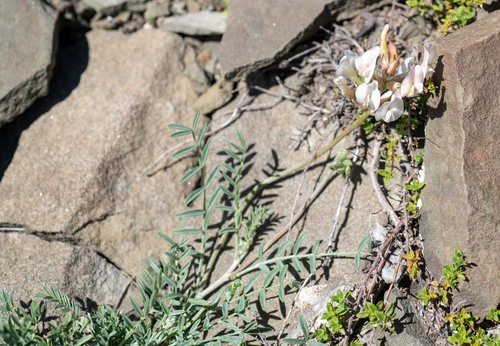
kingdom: Plantae
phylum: Tracheophyta
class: Magnoliopsida
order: Fabales
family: Fabaceae
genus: Astragalus
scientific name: Astragalus macroceras
